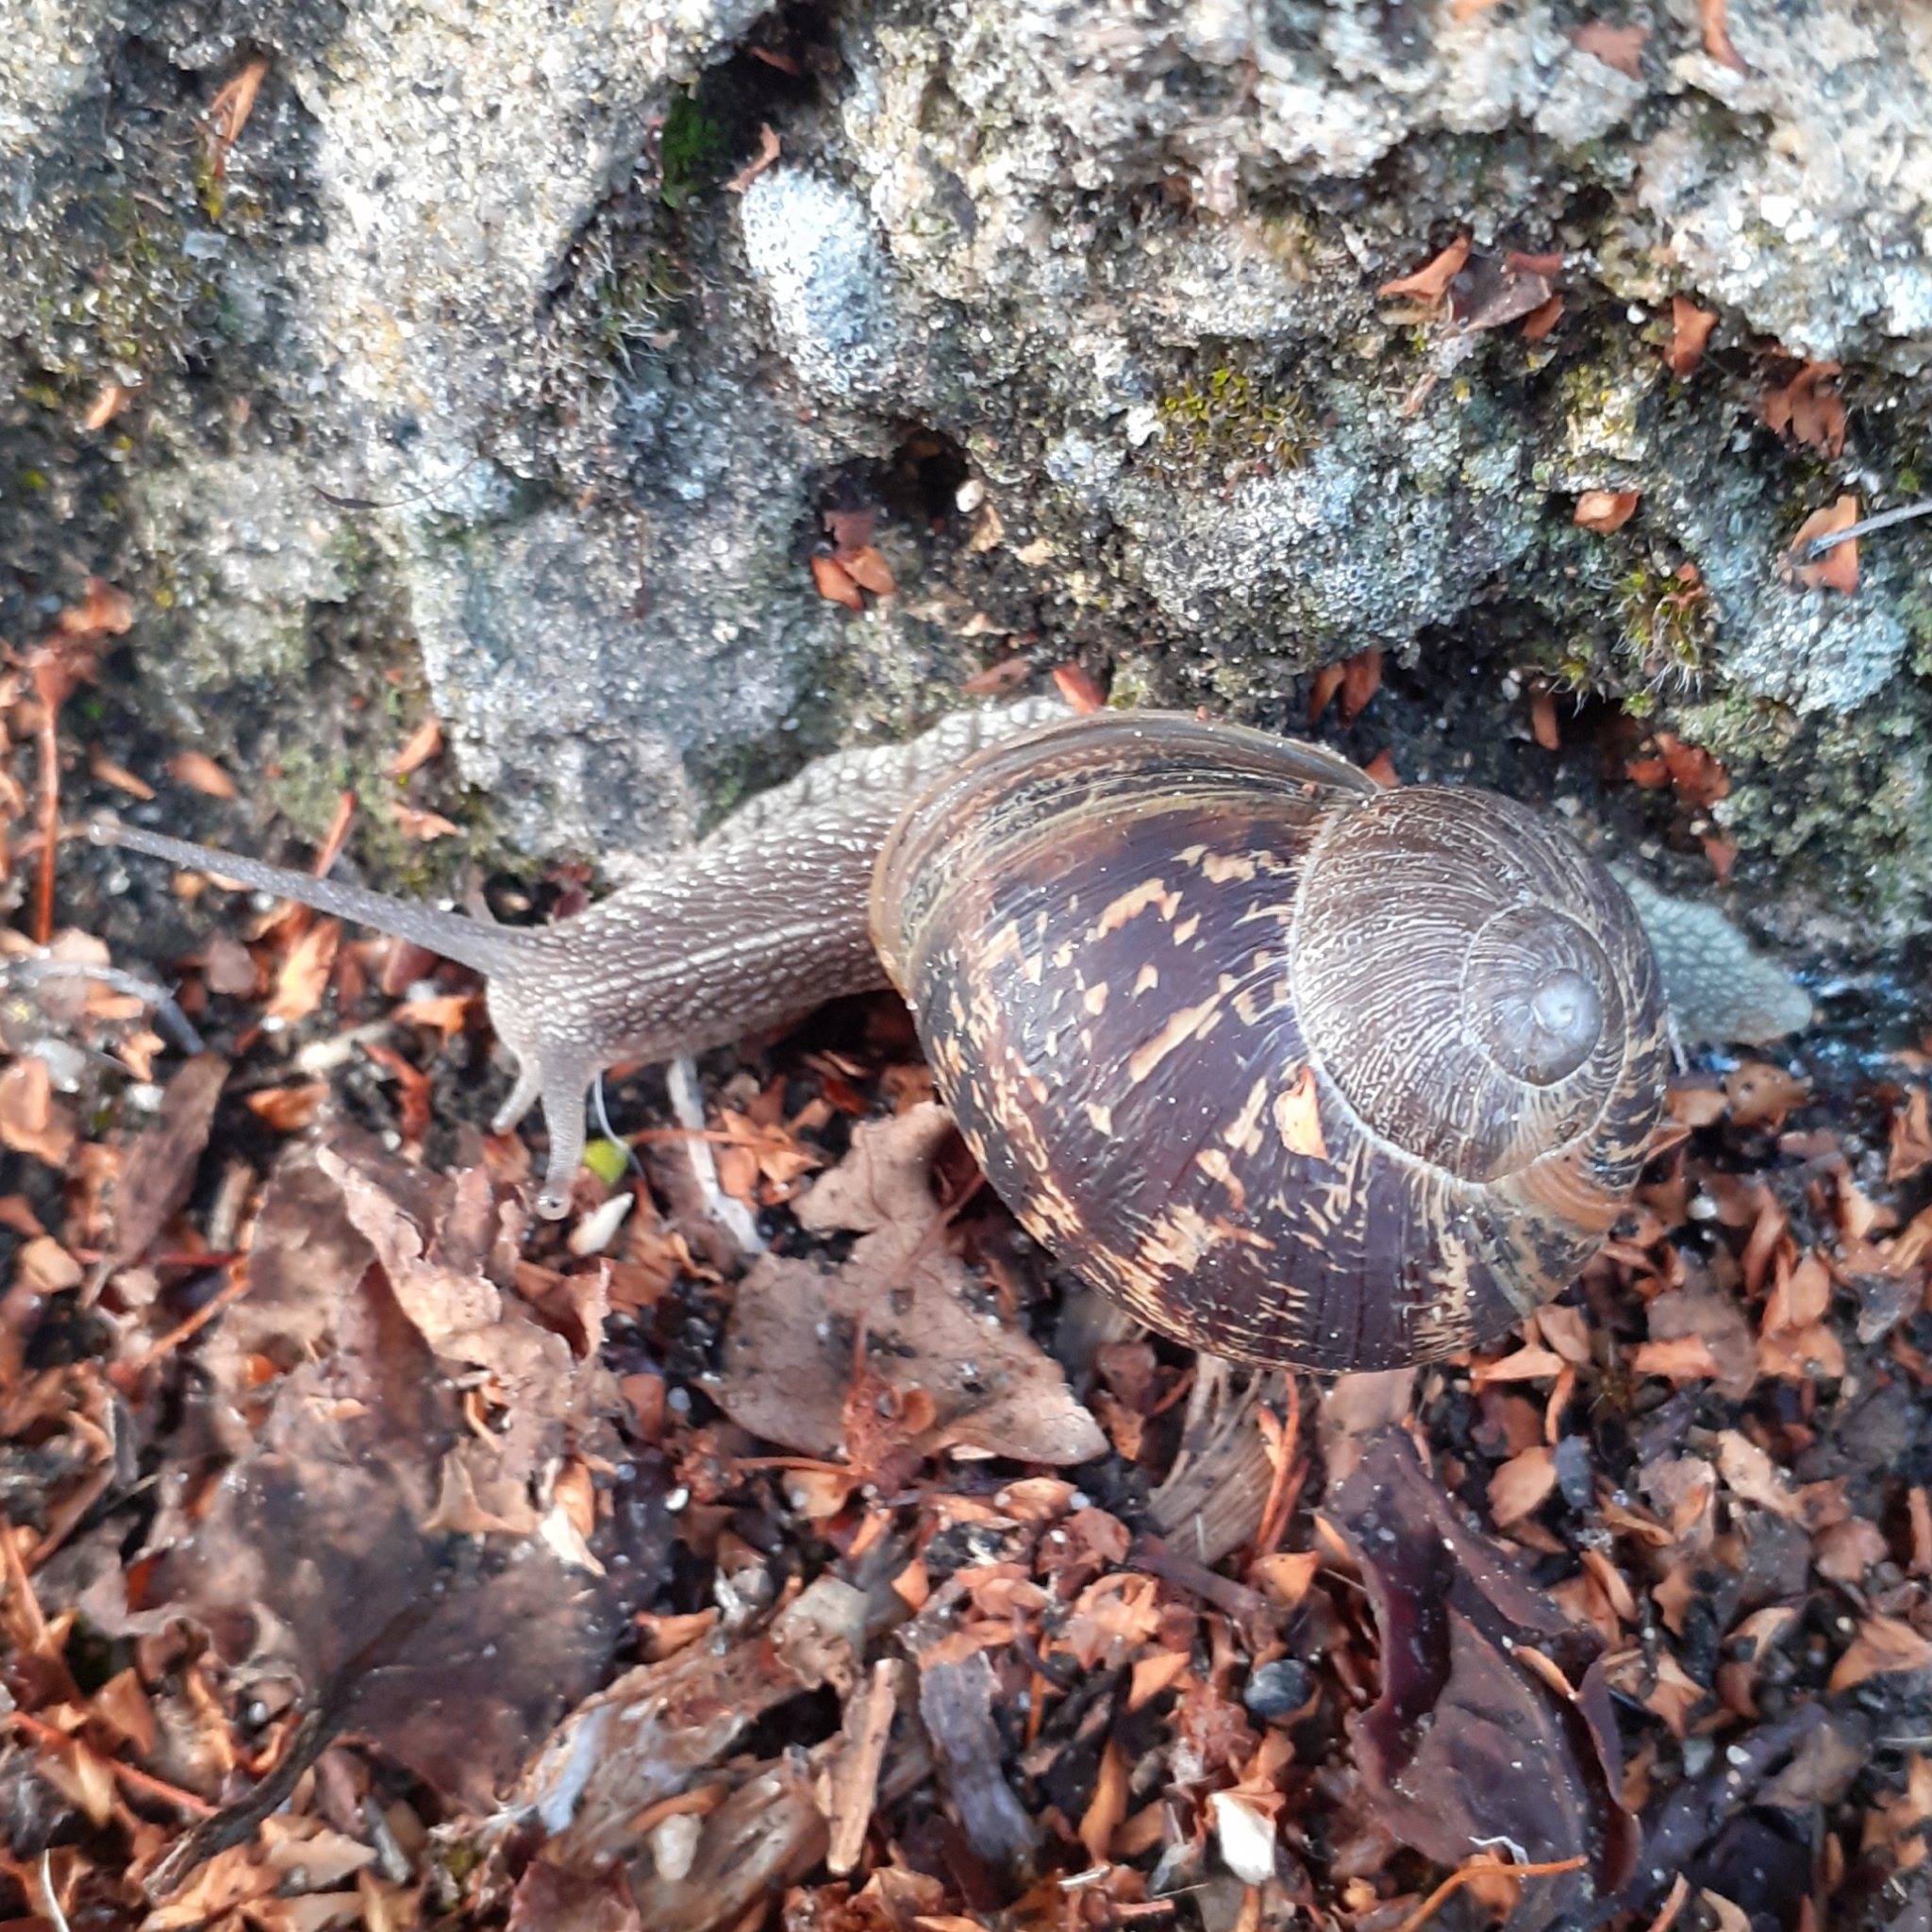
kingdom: Animalia
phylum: Mollusca
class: Gastropoda
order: Stylommatophora
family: Helicidae
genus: Cornu
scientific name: Cornu aspersum
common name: Brown garden snail
